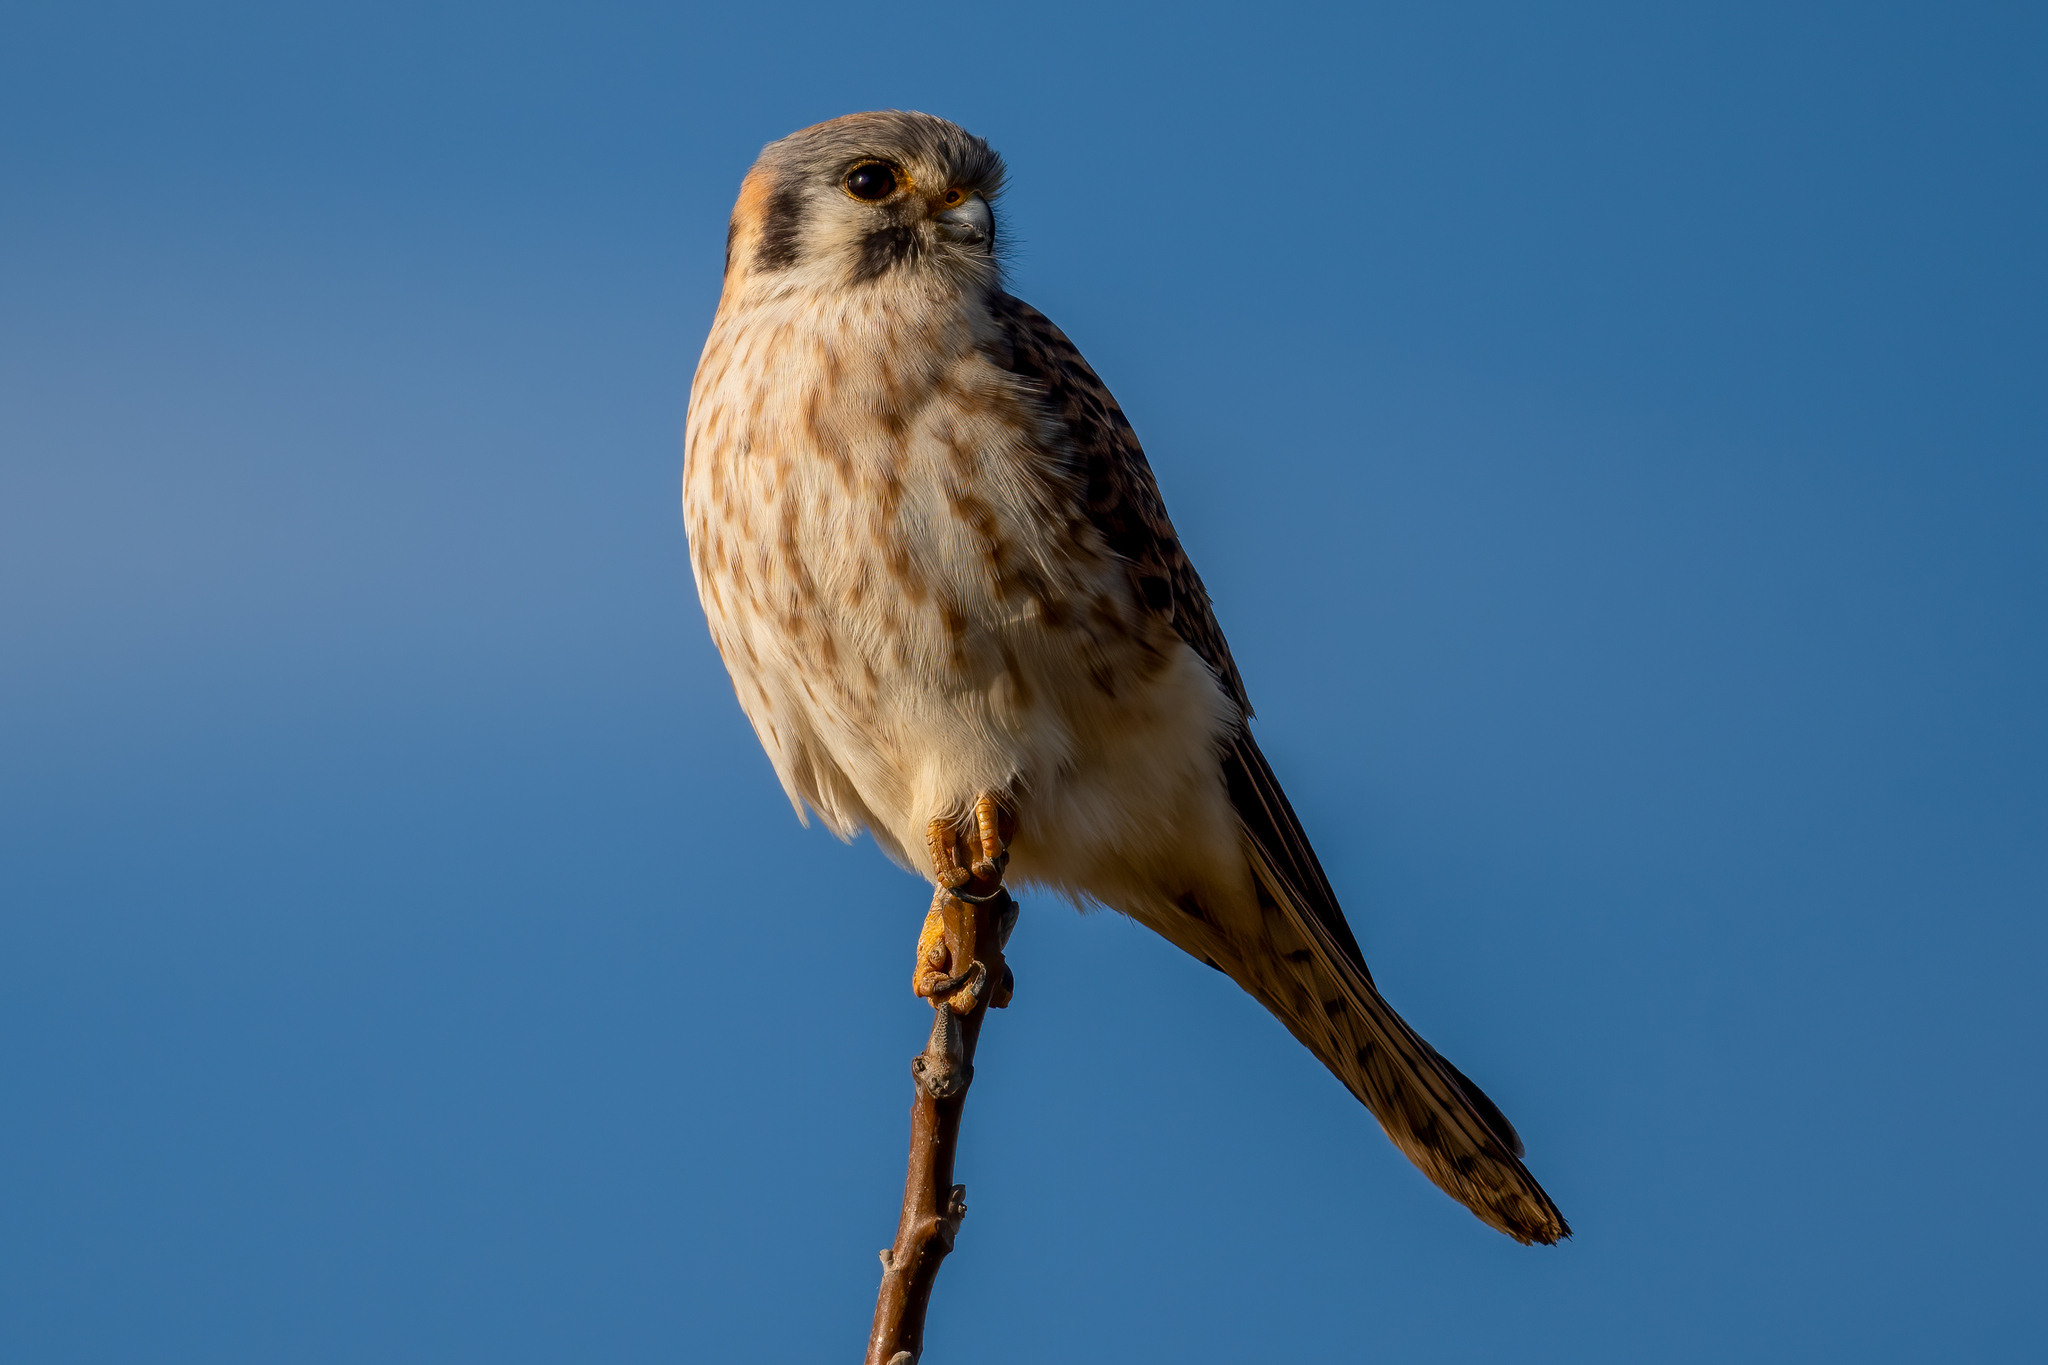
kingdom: Animalia
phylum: Chordata
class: Aves
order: Falconiformes
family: Falconidae
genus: Falco
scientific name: Falco sparverius
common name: American kestrel
